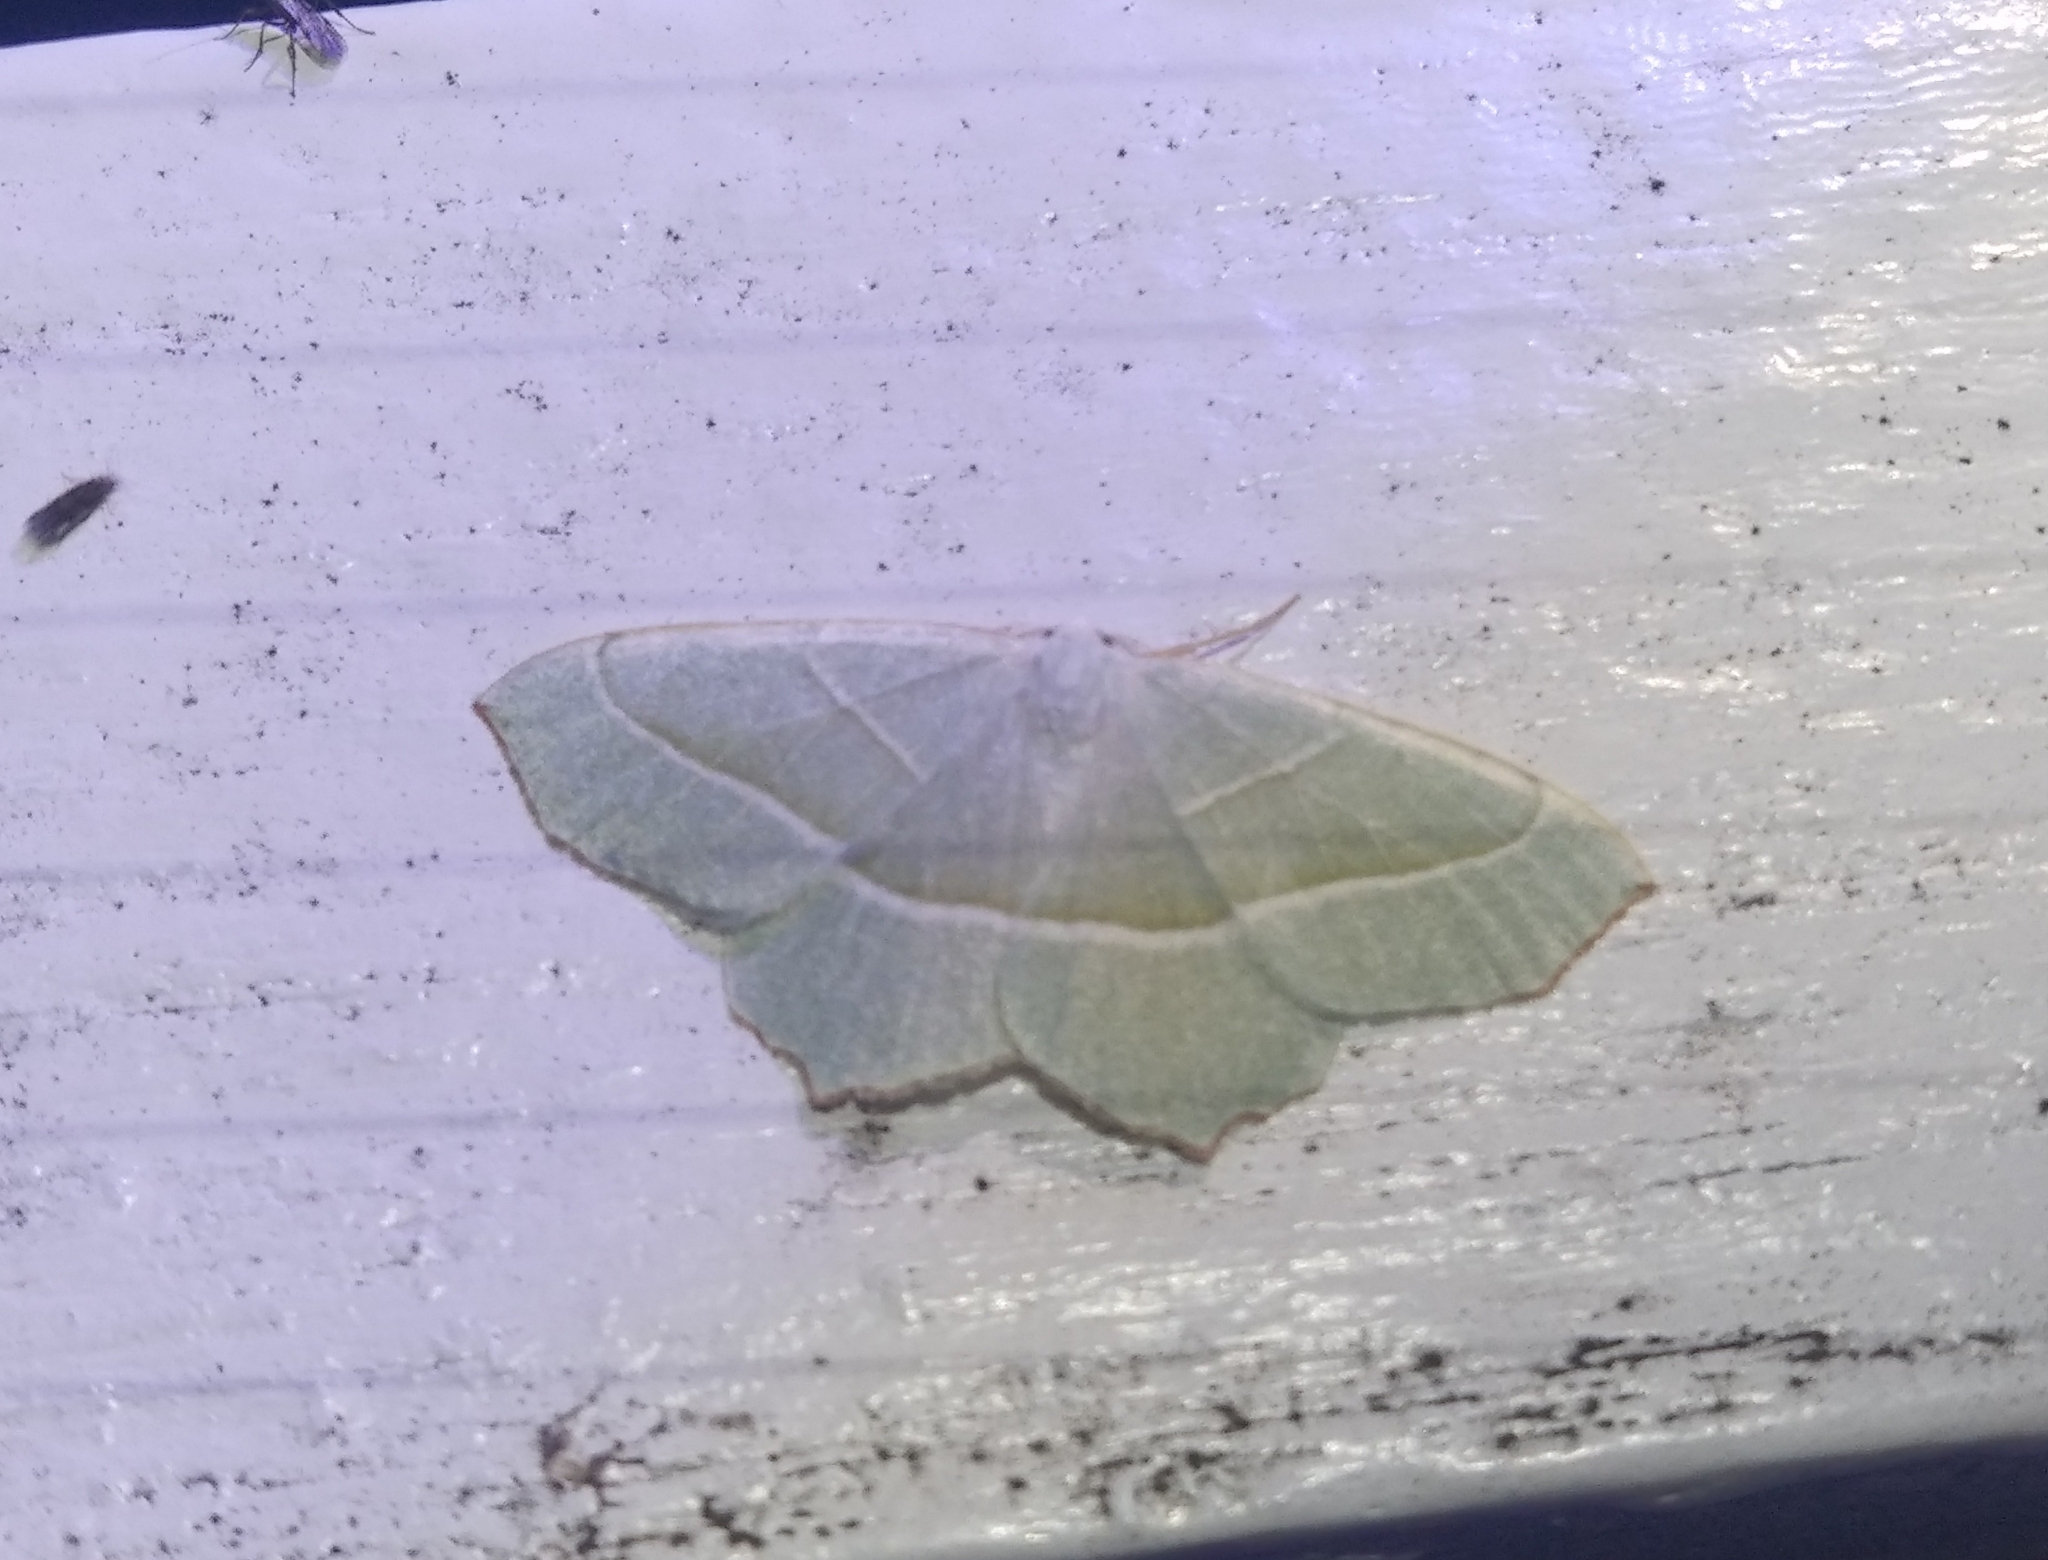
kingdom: Animalia
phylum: Arthropoda
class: Insecta
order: Lepidoptera
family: Geometridae
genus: Campaea
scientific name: Campaea margaritaria
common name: Light emerald
